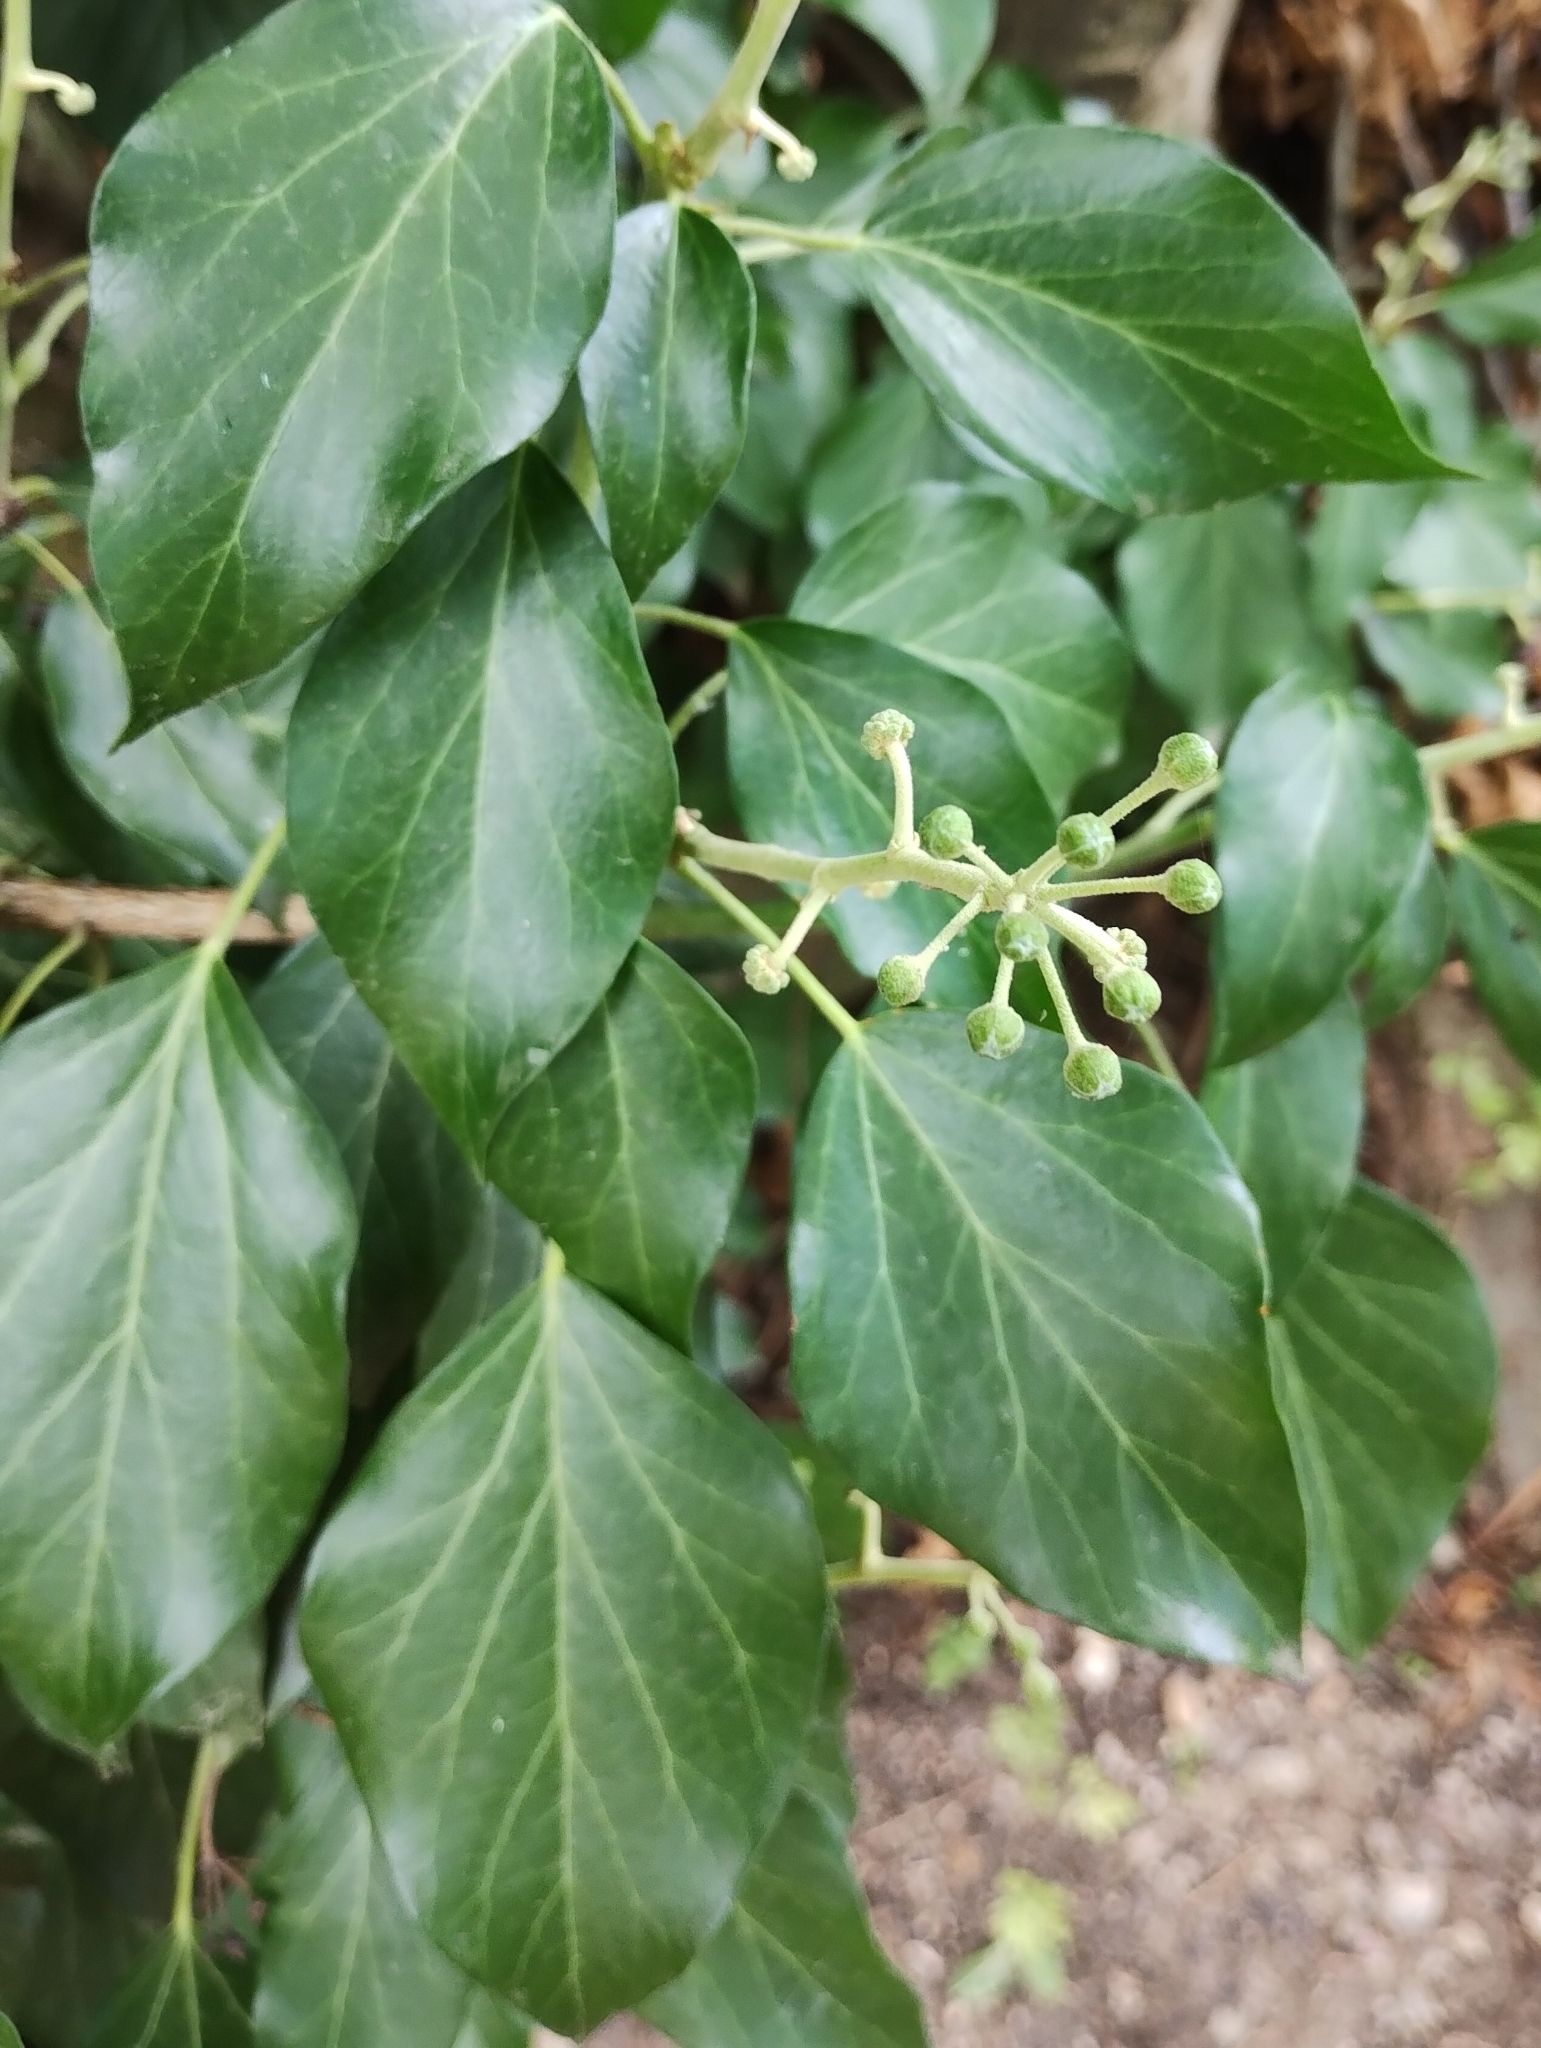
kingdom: Plantae
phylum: Tracheophyta
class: Magnoliopsida
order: Apiales
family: Araliaceae
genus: Hedera
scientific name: Hedera helix
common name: Ivy
